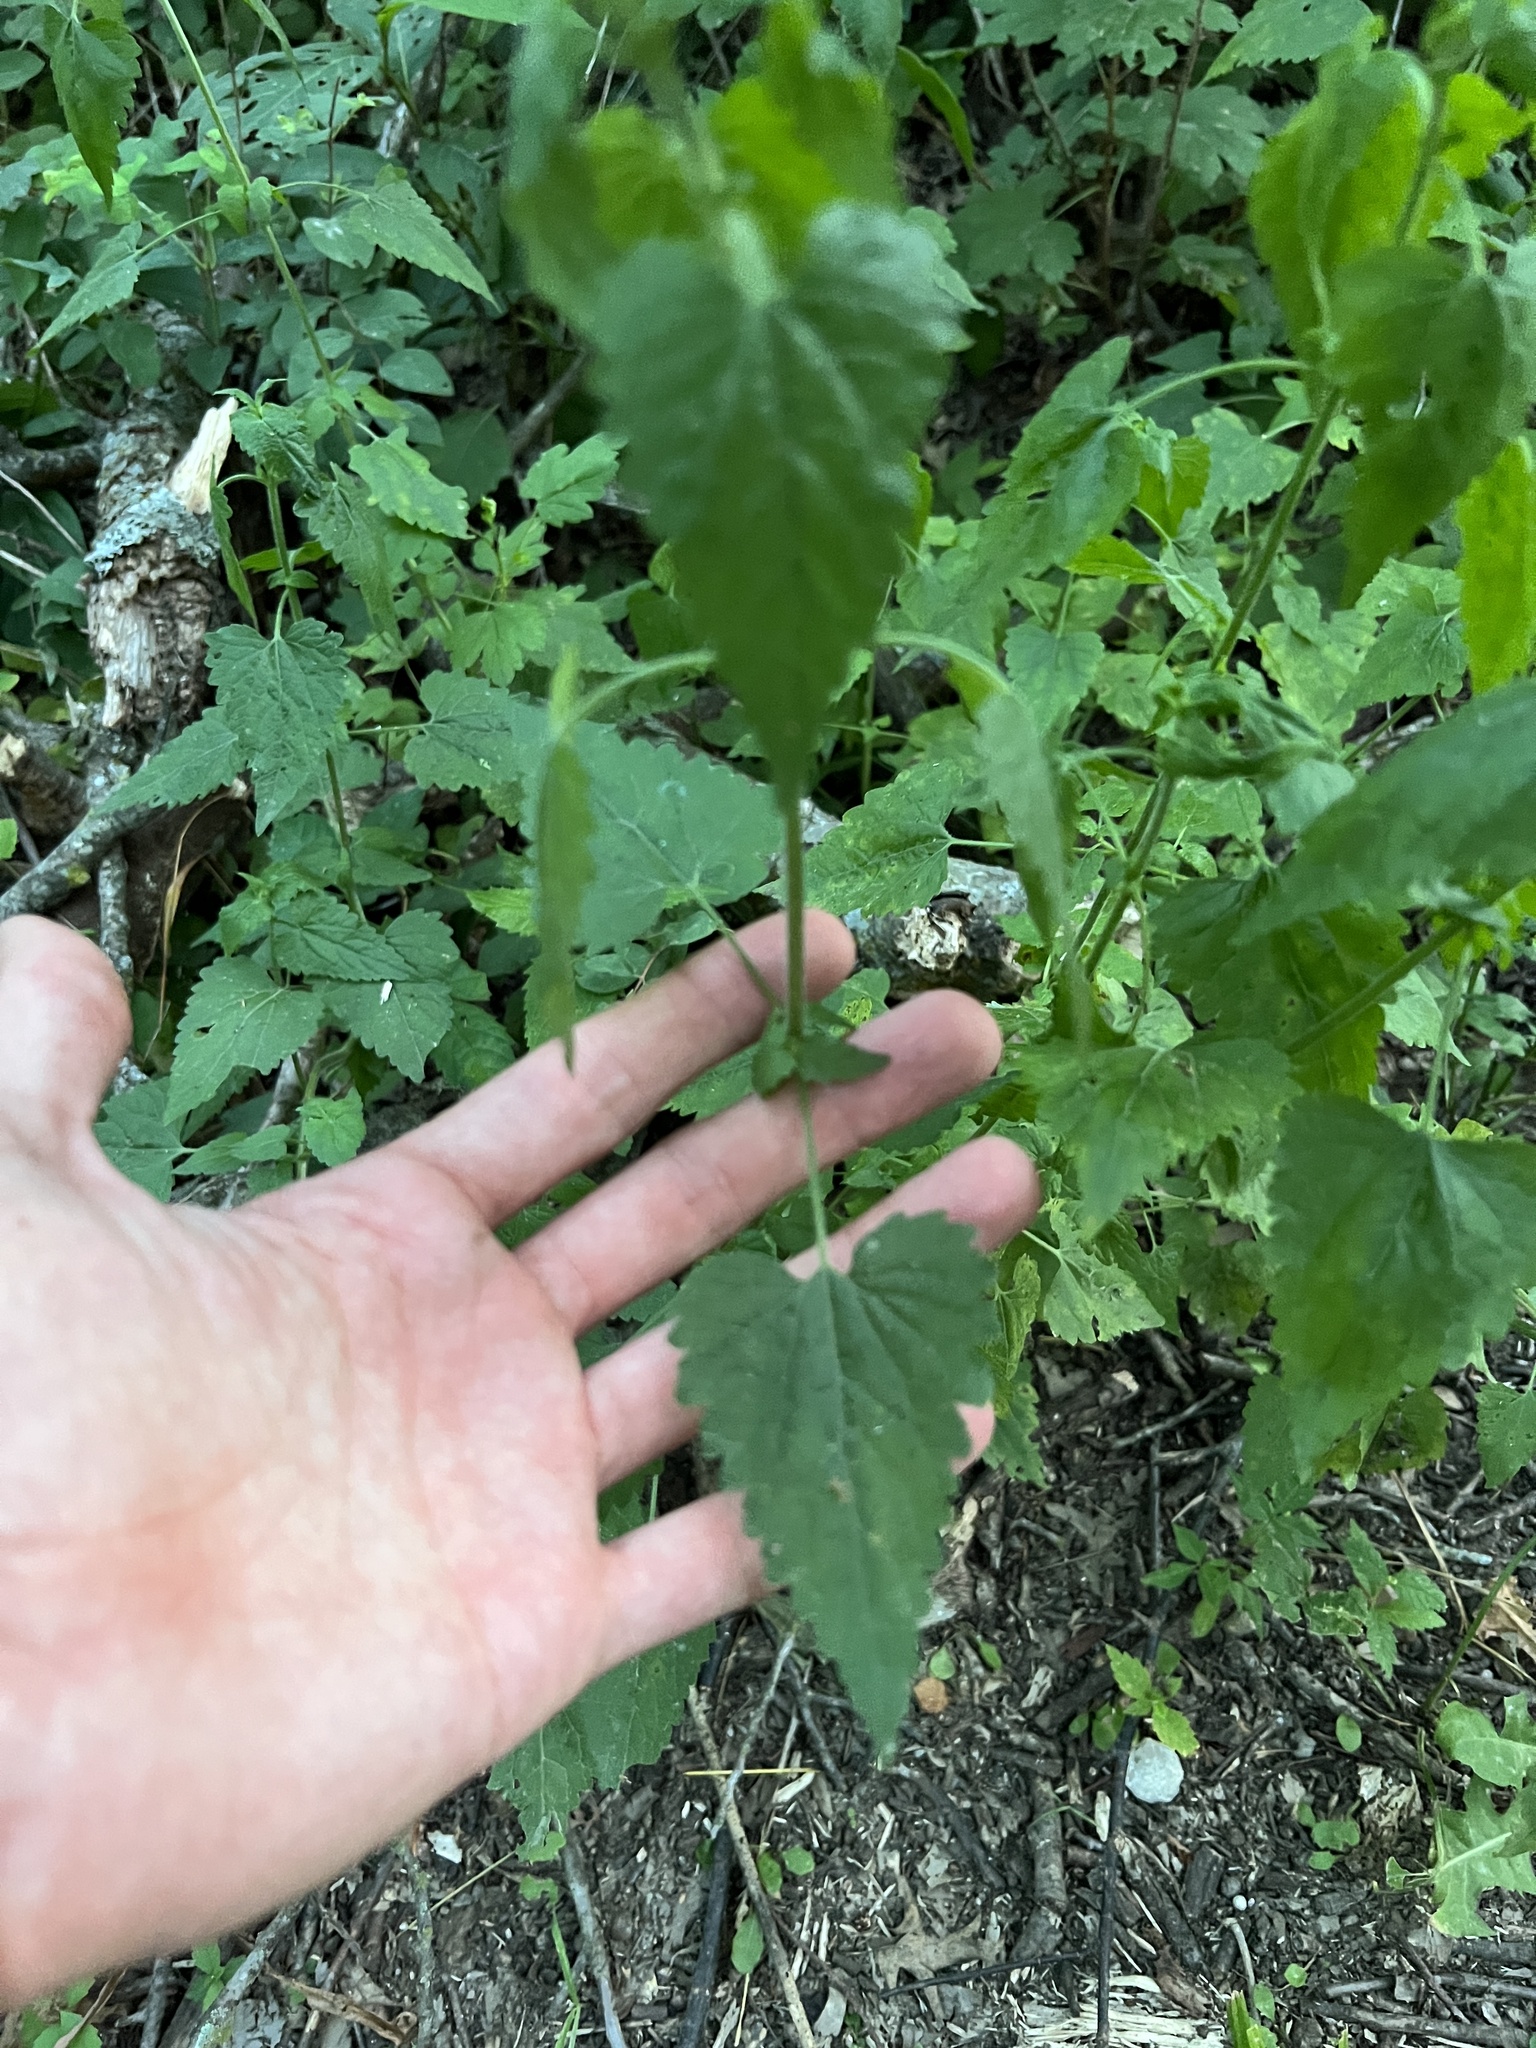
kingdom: Plantae
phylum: Tracheophyta
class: Magnoliopsida
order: Asterales
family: Asteraceae
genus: Fleischmannia
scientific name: Fleischmannia incarnata
